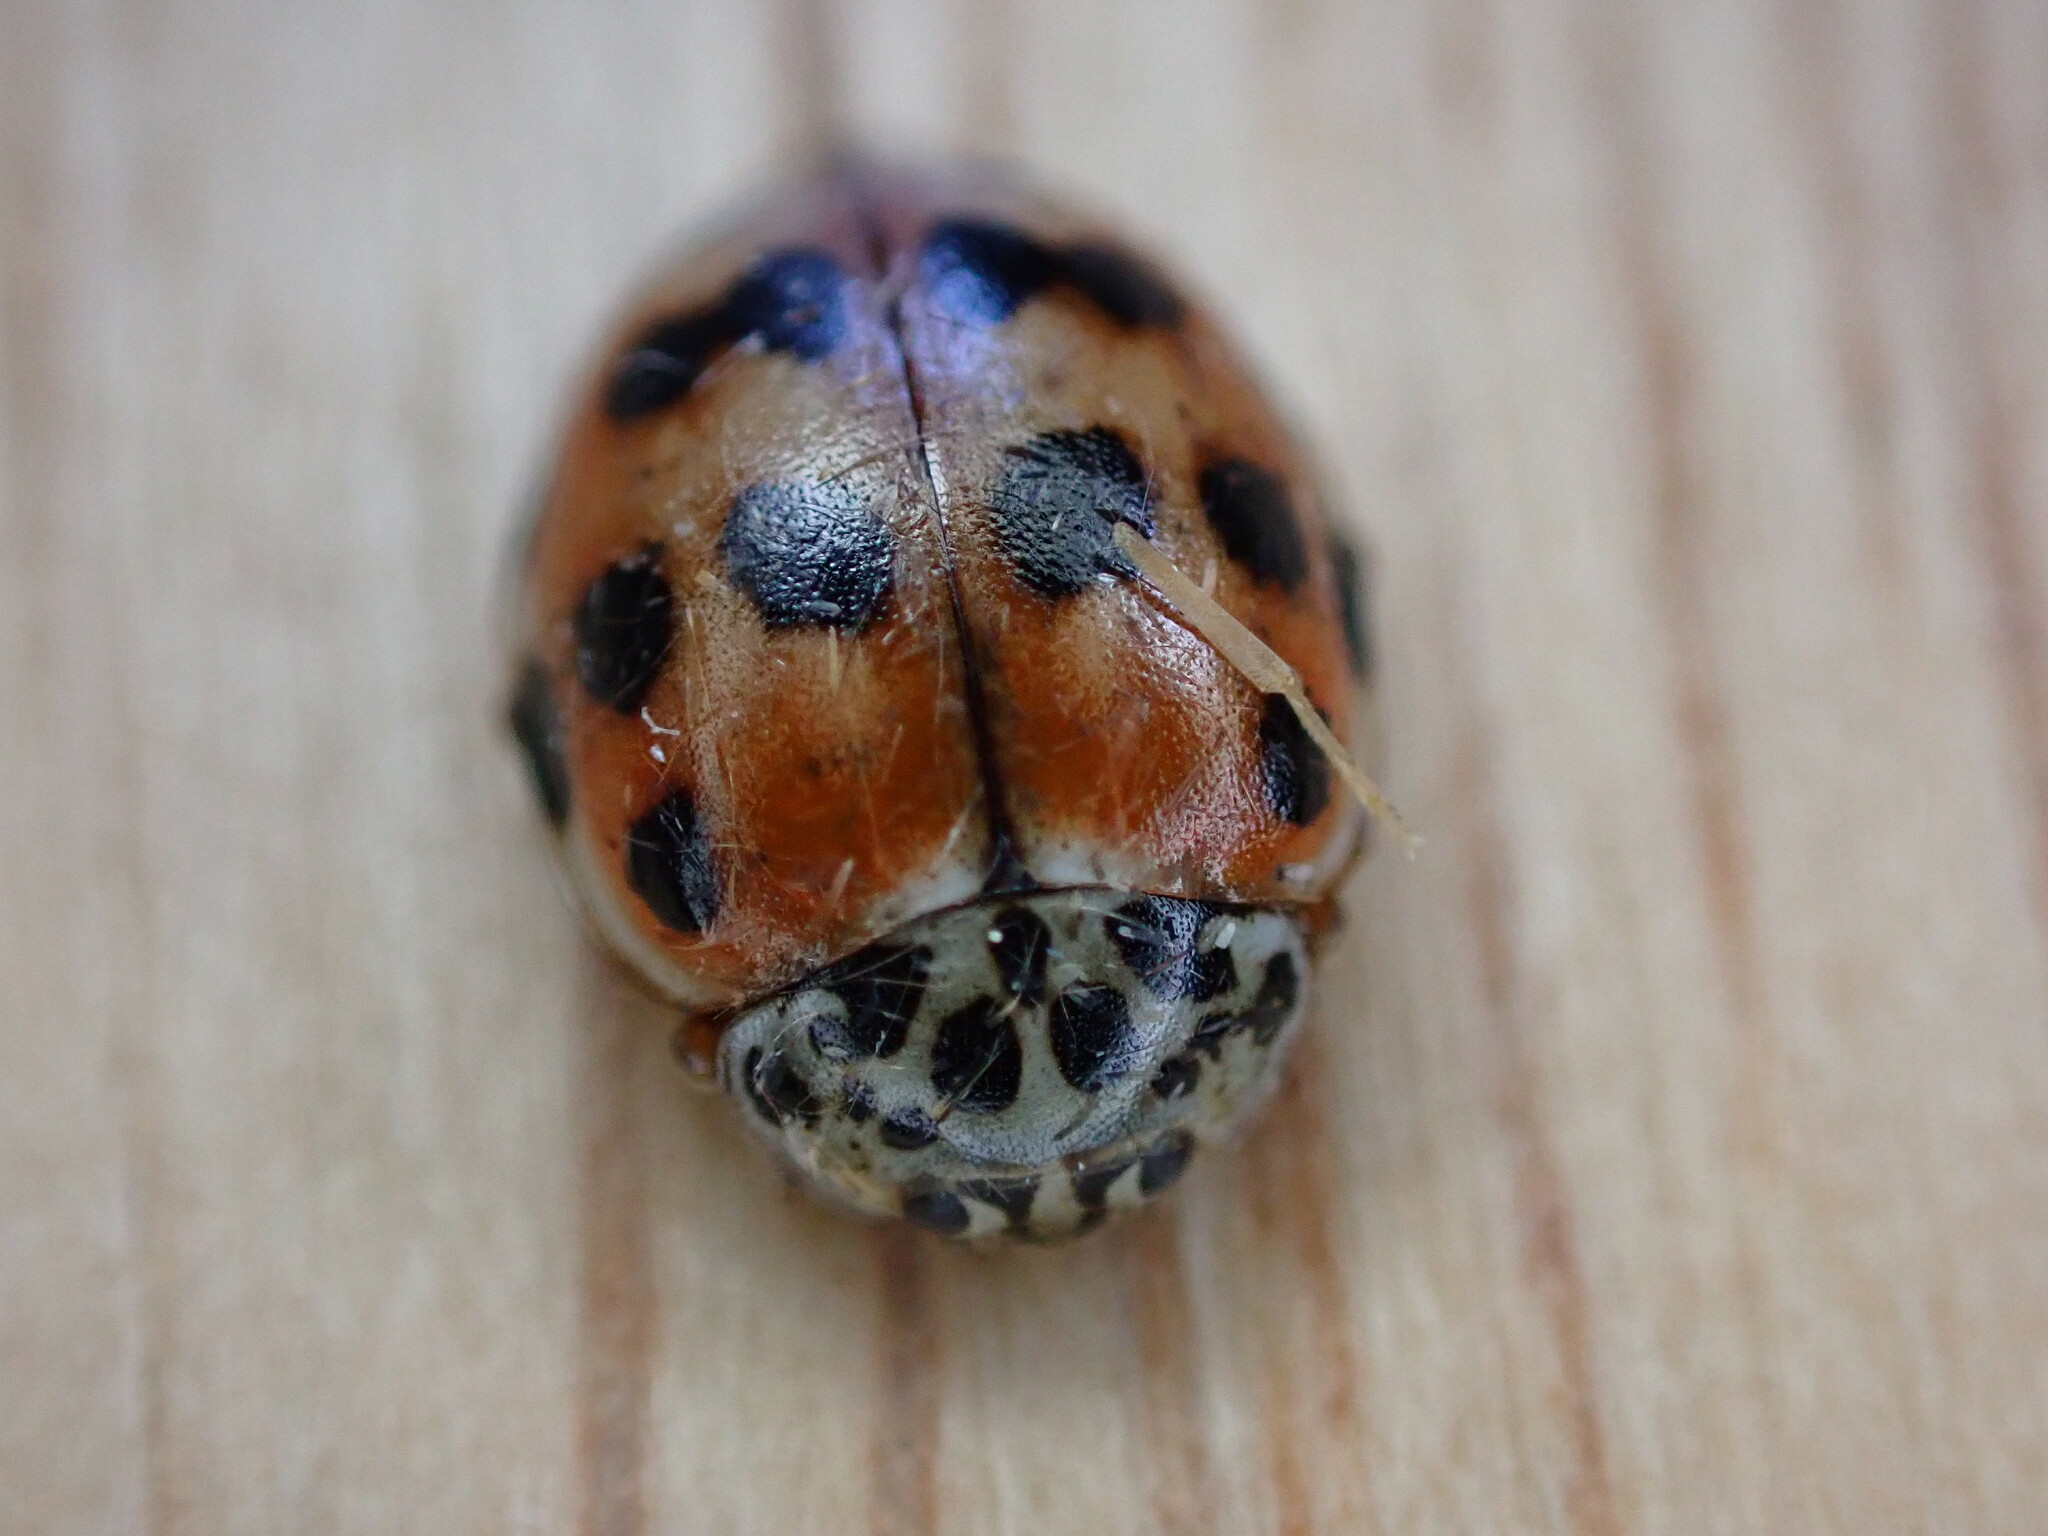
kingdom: Animalia
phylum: Arthropoda
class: Insecta
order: Coleoptera
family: Coccinellidae
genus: Harmonia
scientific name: Harmonia quadripunctata
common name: Cream-streaked ladybird
